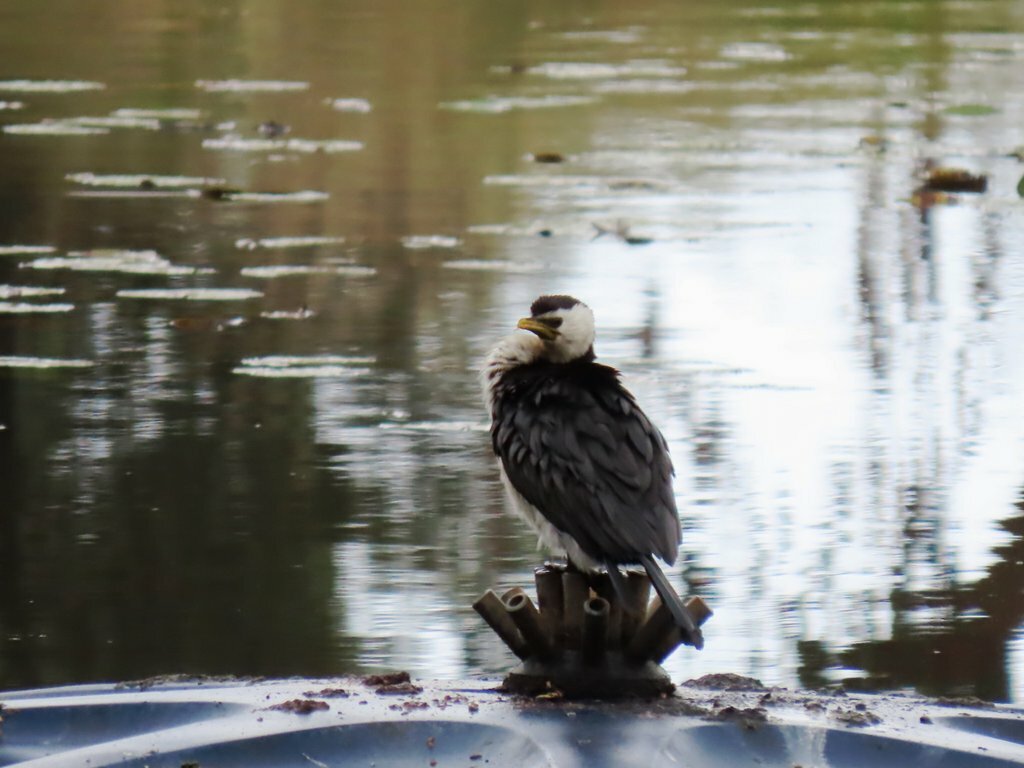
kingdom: Animalia
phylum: Chordata
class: Aves
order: Suliformes
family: Phalacrocoracidae
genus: Microcarbo
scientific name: Microcarbo melanoleucos
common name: Little pied cormorant
